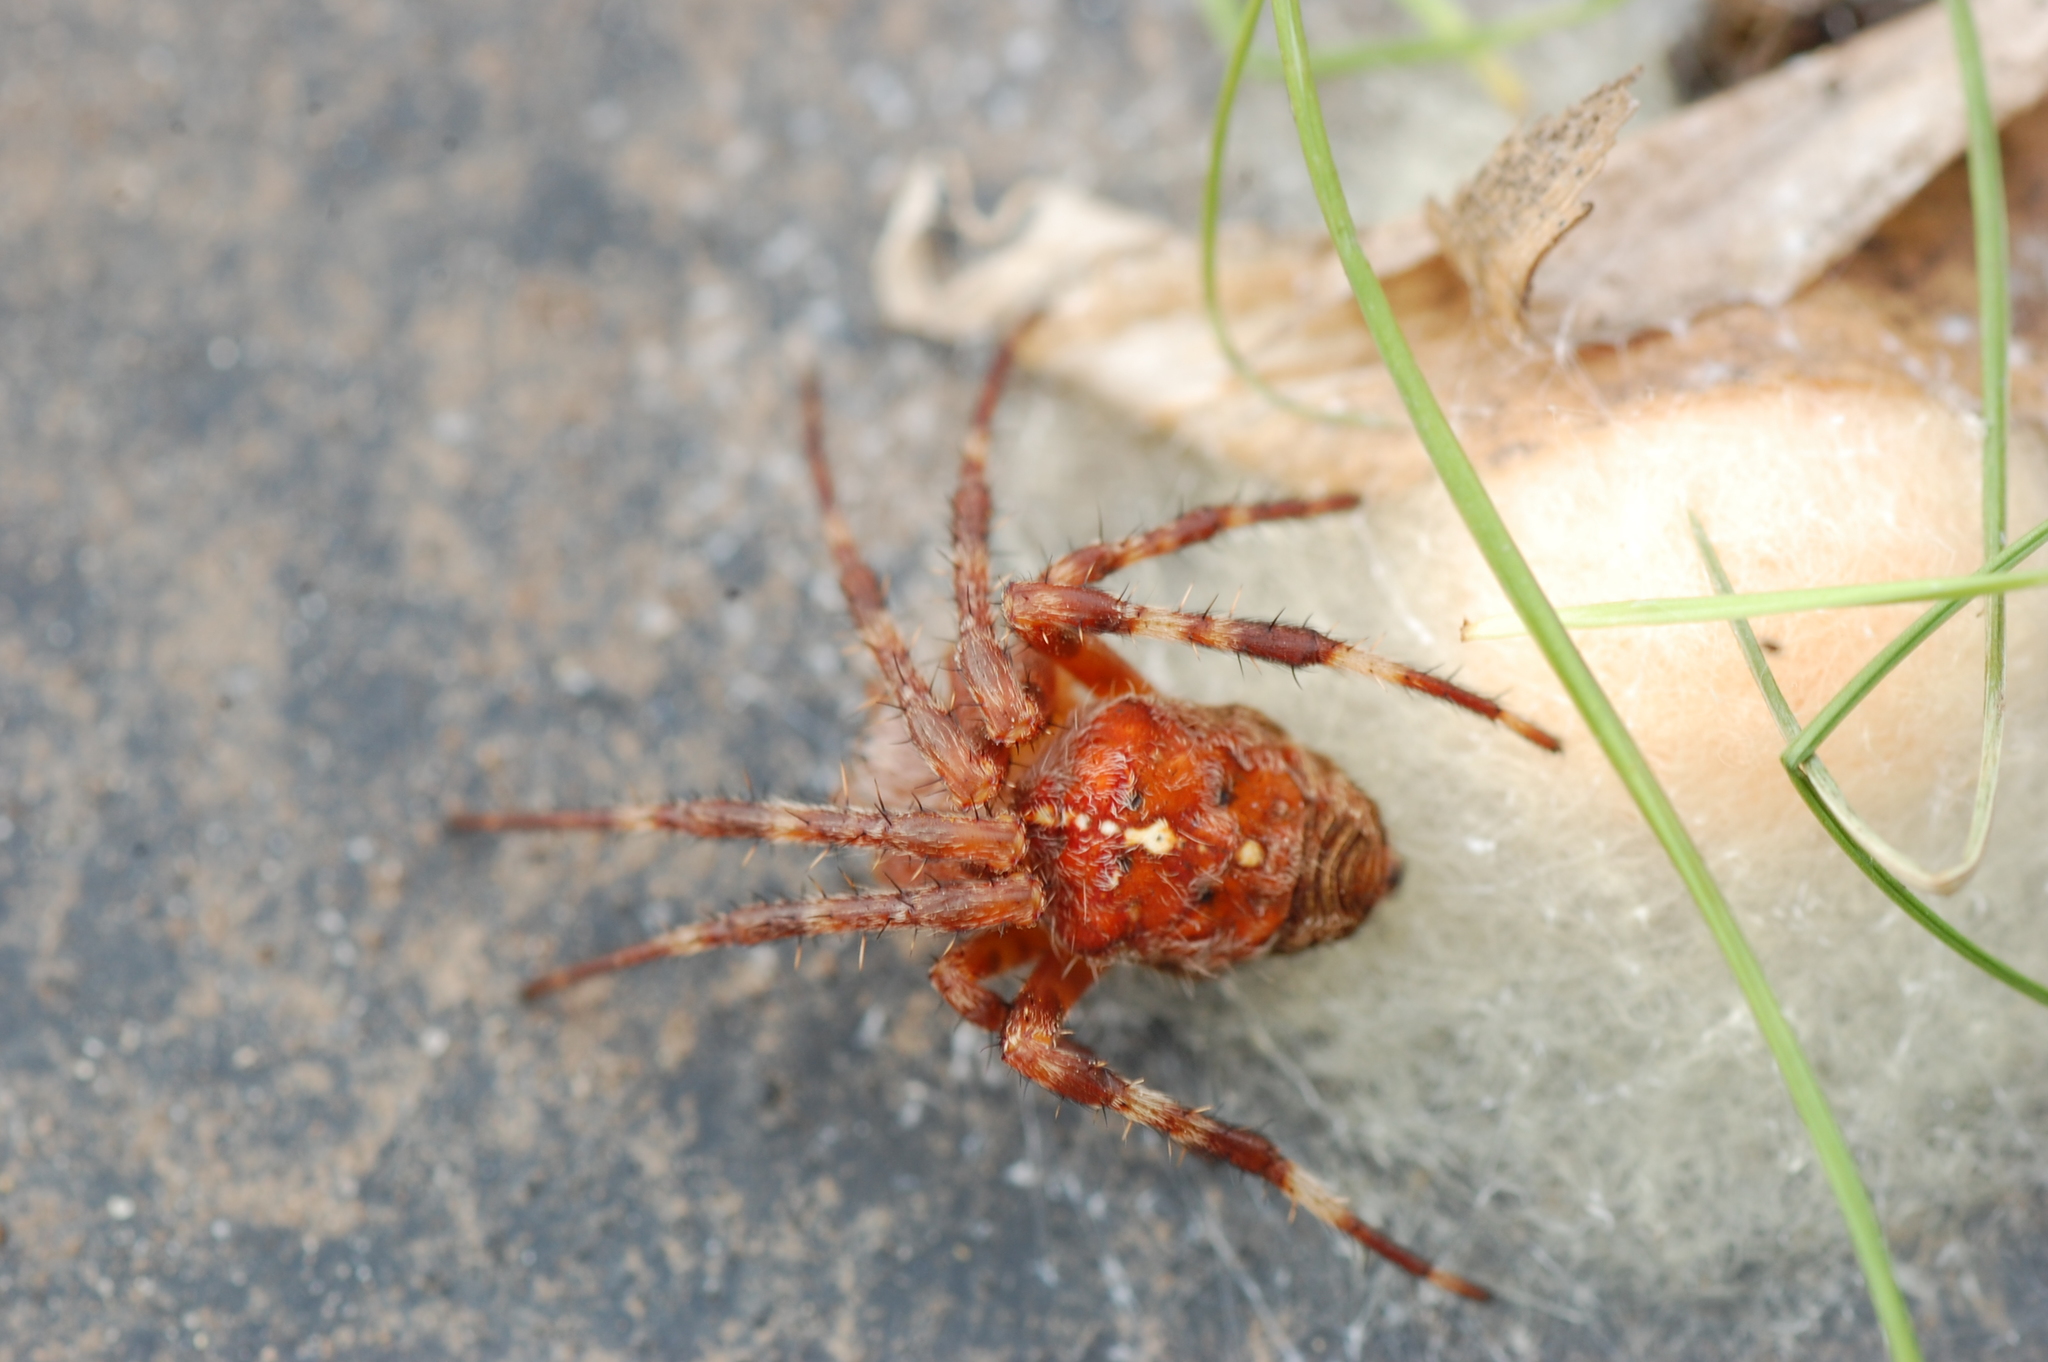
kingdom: Animalia
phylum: Arthropoda
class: Arachnida
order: Araneae
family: Araneidae
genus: Araneus
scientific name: Araneus diadematus
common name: Cross orbweaver
